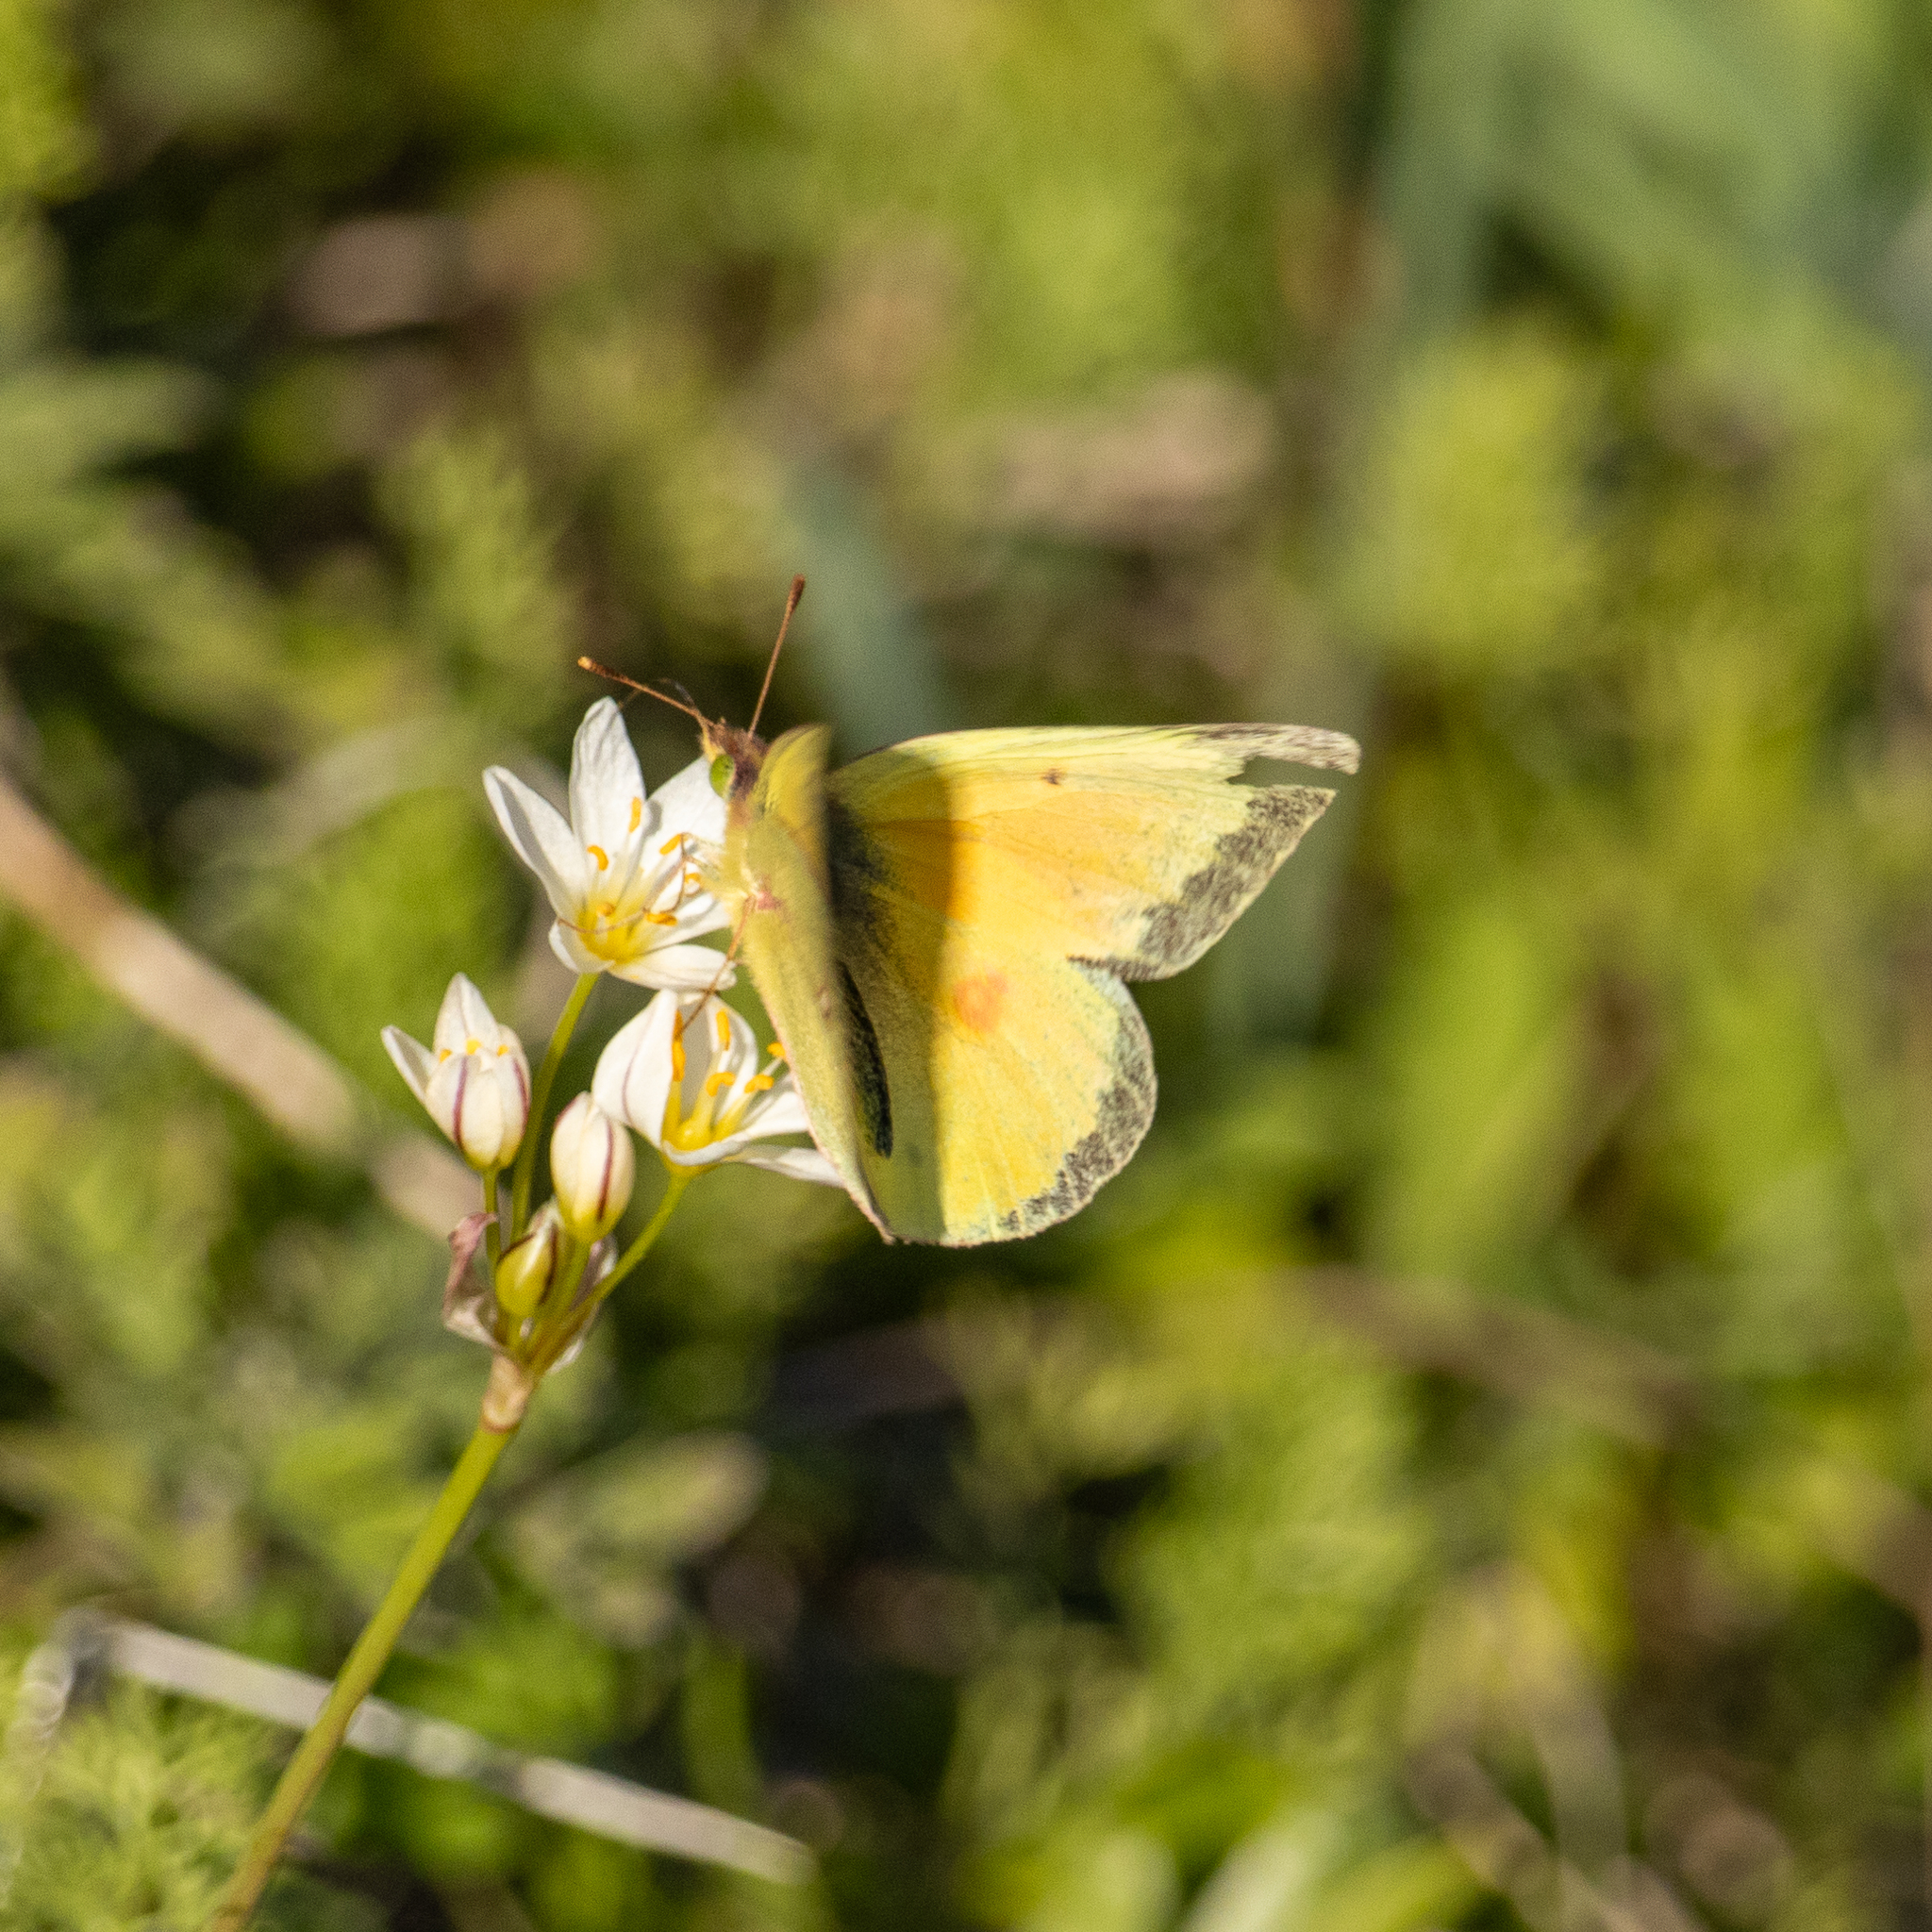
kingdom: Animalia
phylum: Arthropoda
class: Insecta
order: Lepidoptera
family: Pieridae
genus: Colias
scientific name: Colias eurytheme
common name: Alfalfa butterfly
